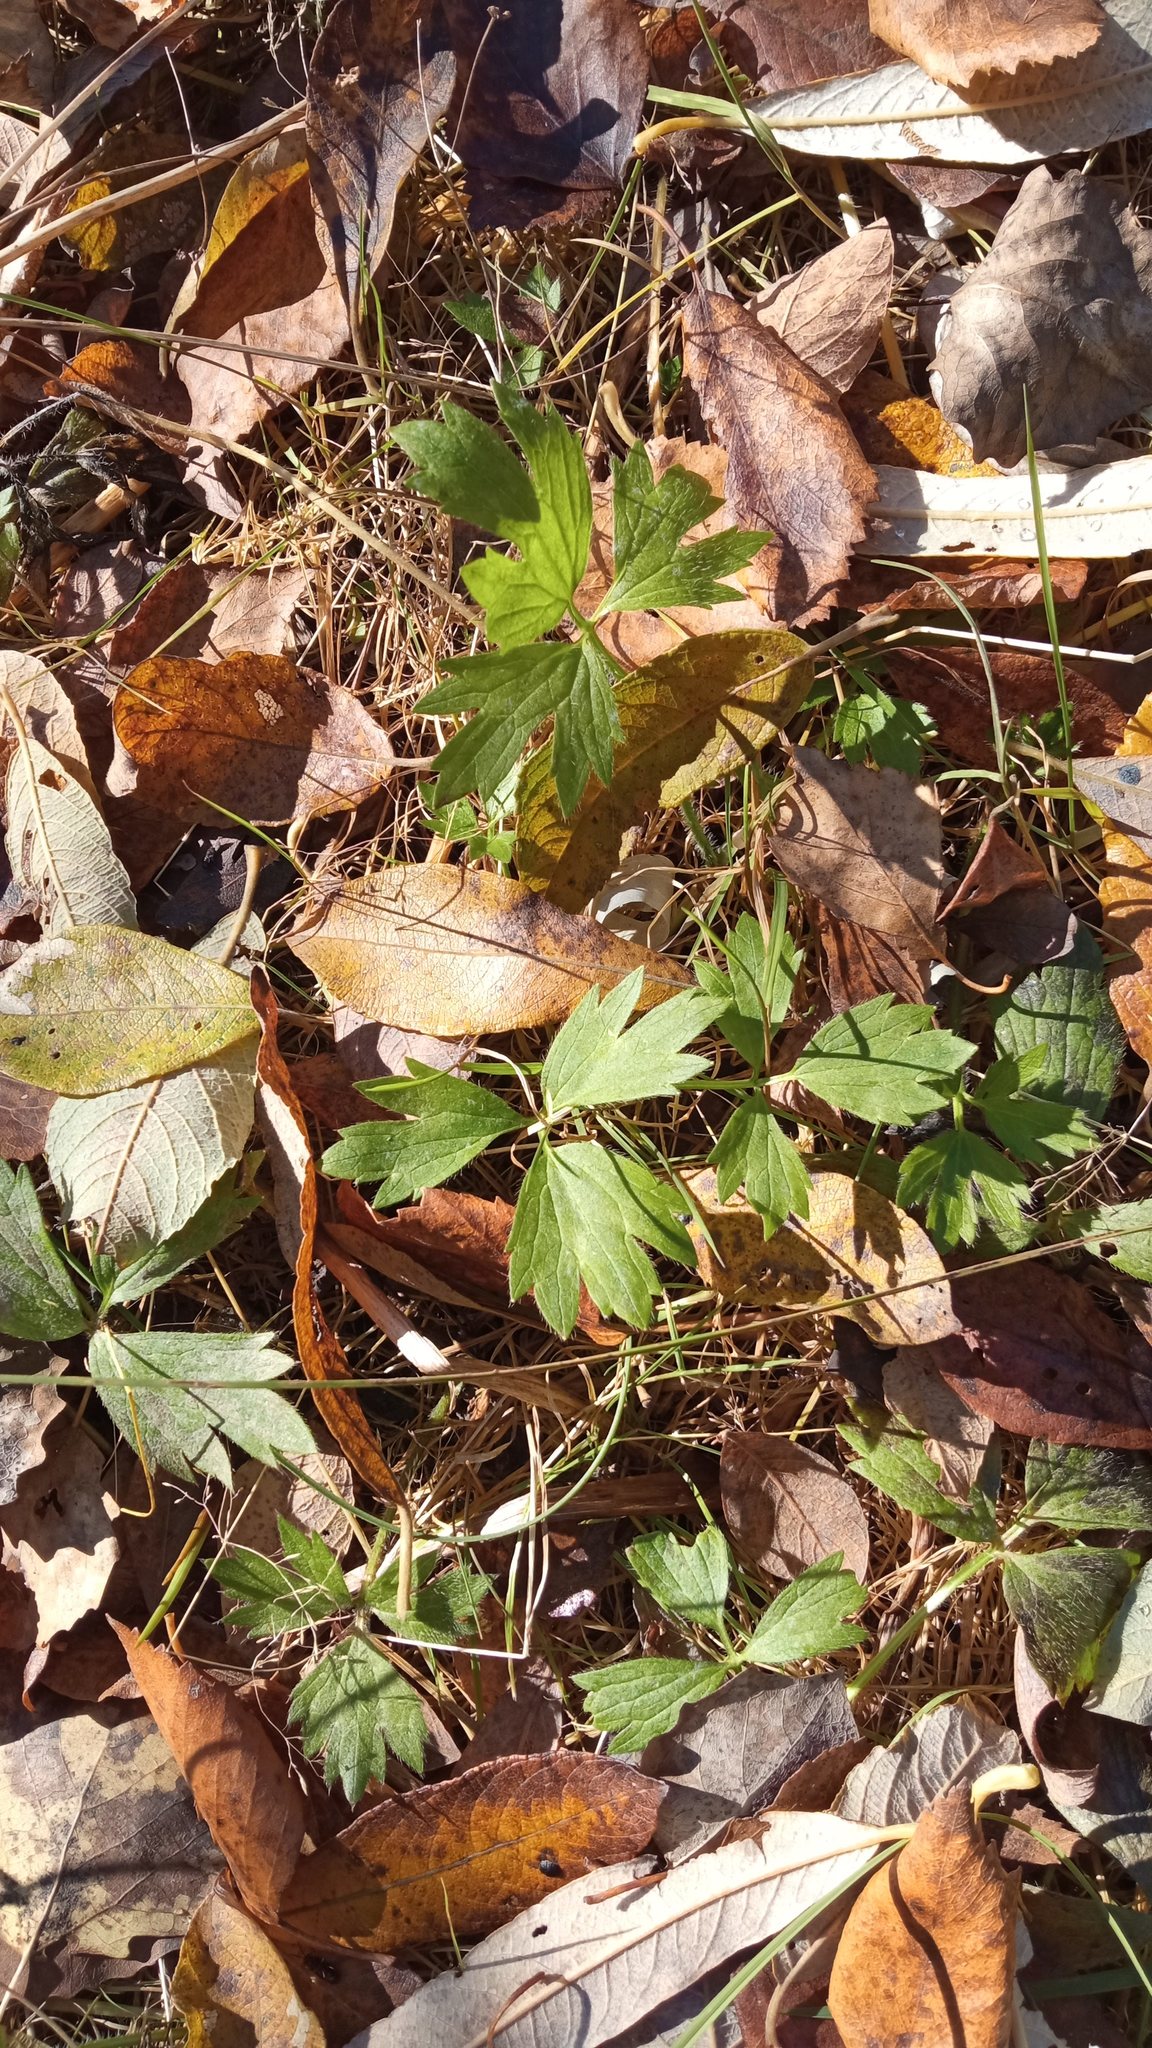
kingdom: Plantae
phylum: Tracheophyta
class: Magnoliopsida
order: Ranunculales
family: Ranunculaceae
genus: Ranunculus
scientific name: Ranunculus repens
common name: Creeping buttercup
